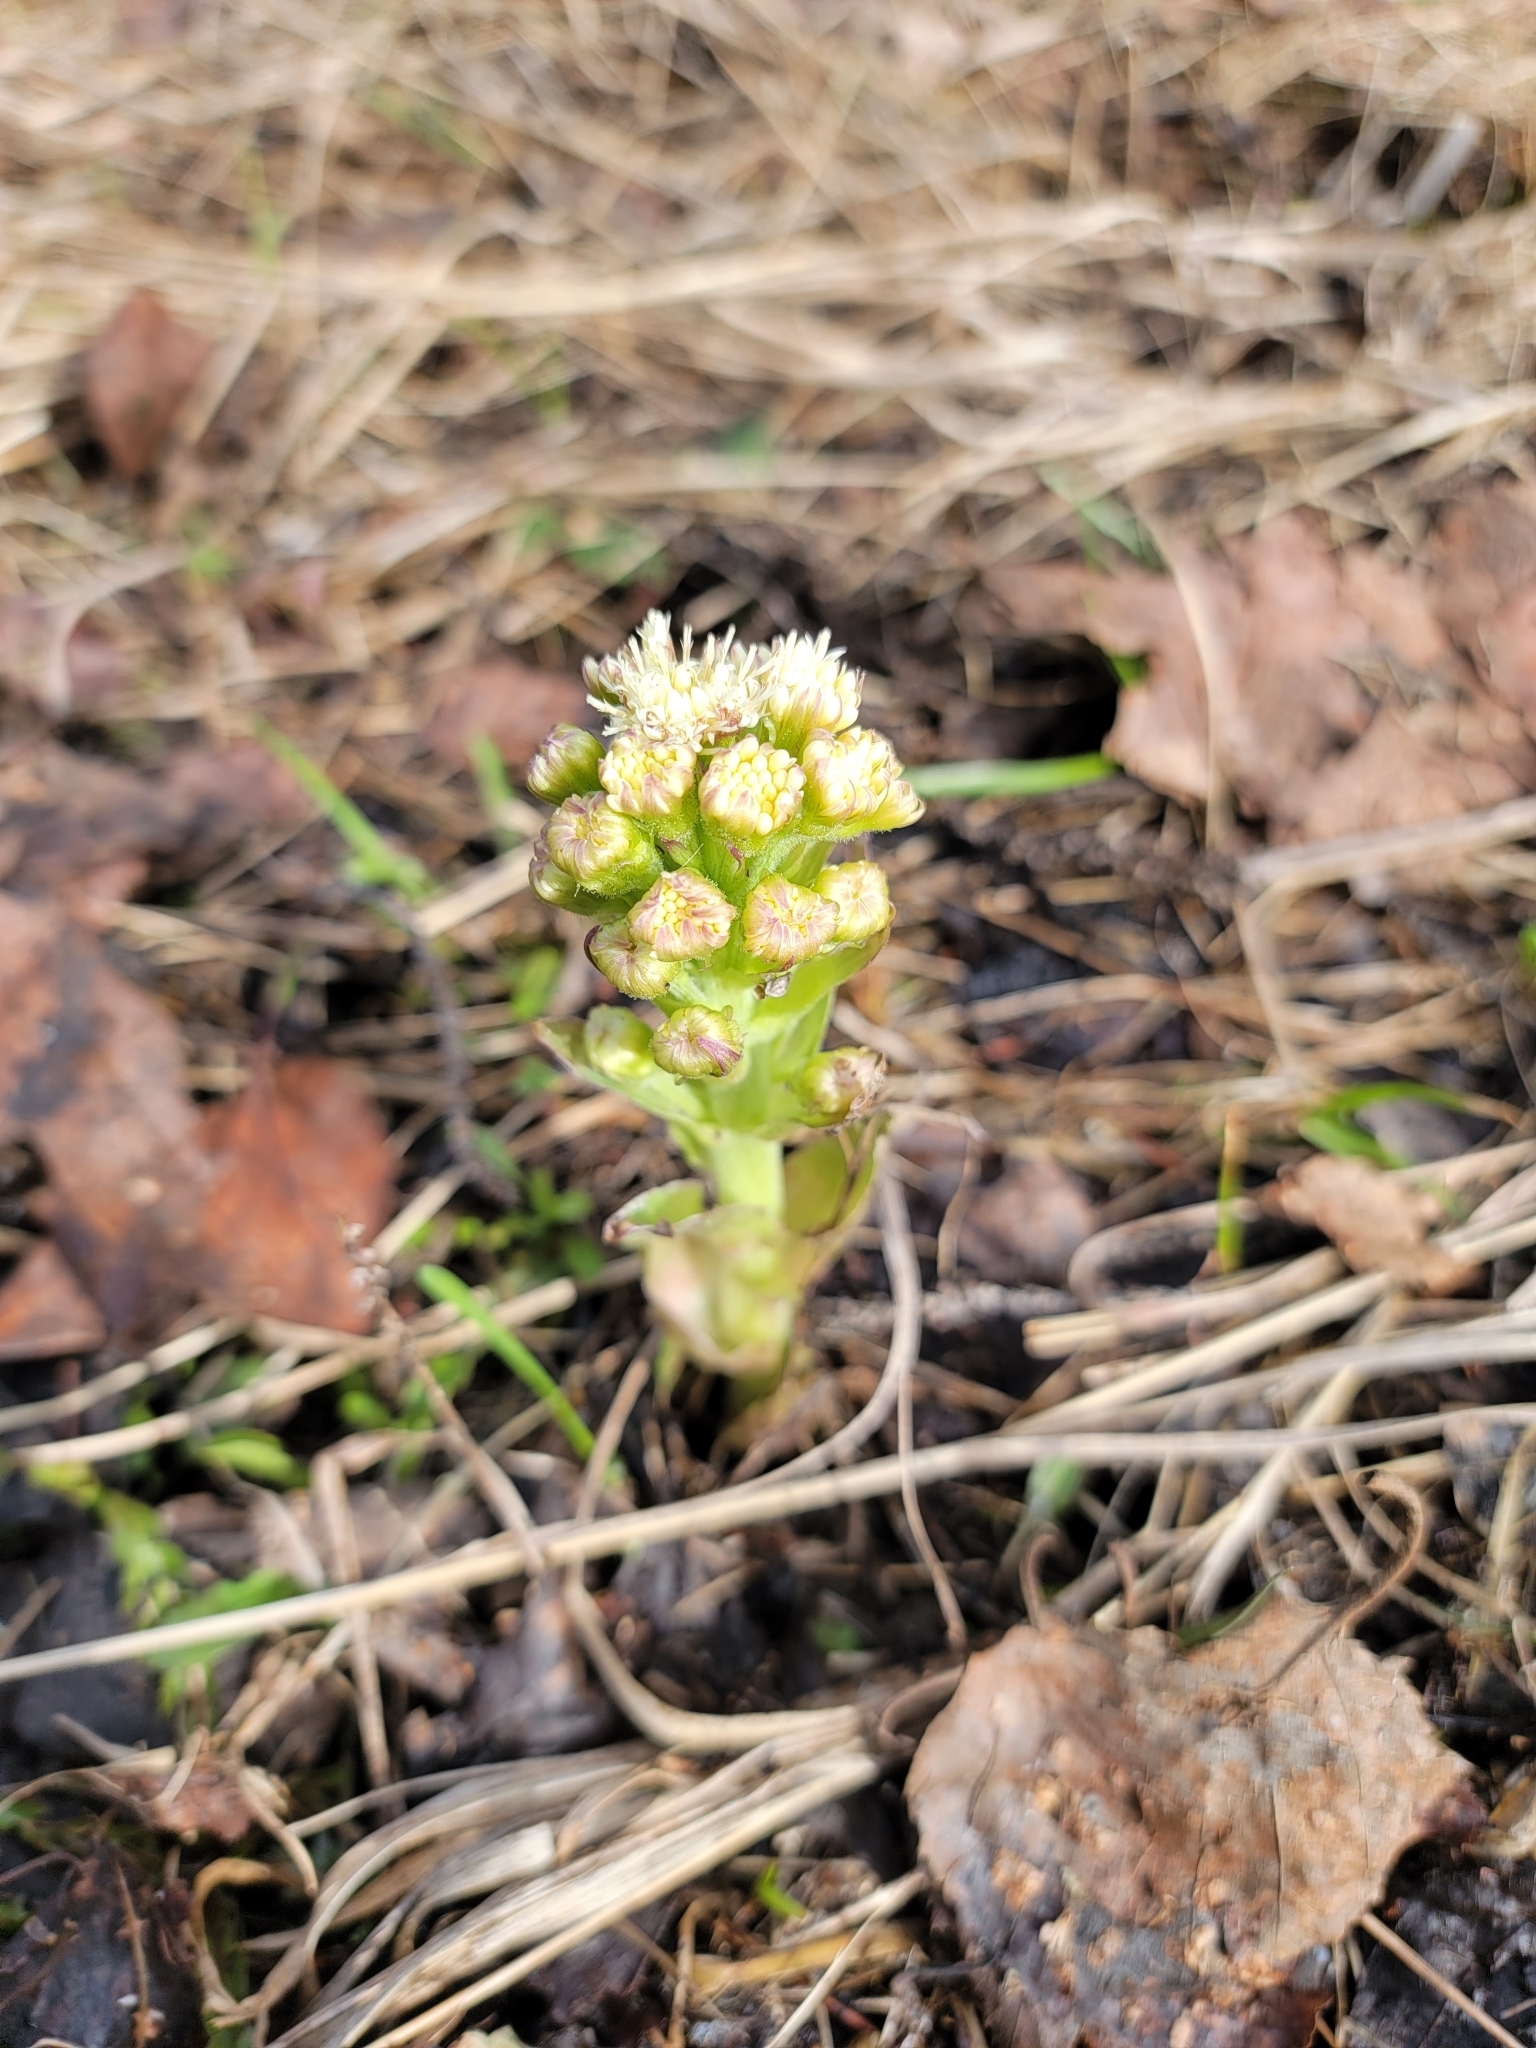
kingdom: Plantae
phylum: Tracheophyta
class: Magnoliopsida
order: Asterales
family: Asteraceae
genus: Petasites
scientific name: Petasites frigidus
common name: Arctic butterbur
